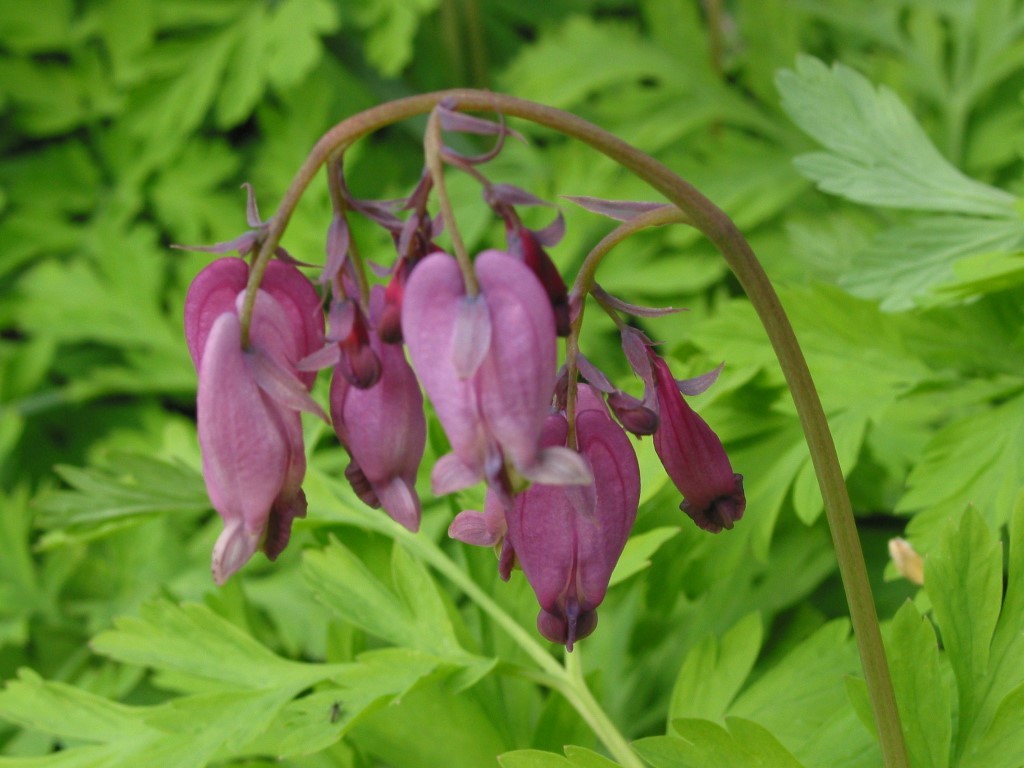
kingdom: Plantae
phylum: Tracheophyta
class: Magnoliopsida
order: Ranunculales
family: Papaveraceae
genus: Dicentra
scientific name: Dicentra formosa
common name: Bleeding-heart
